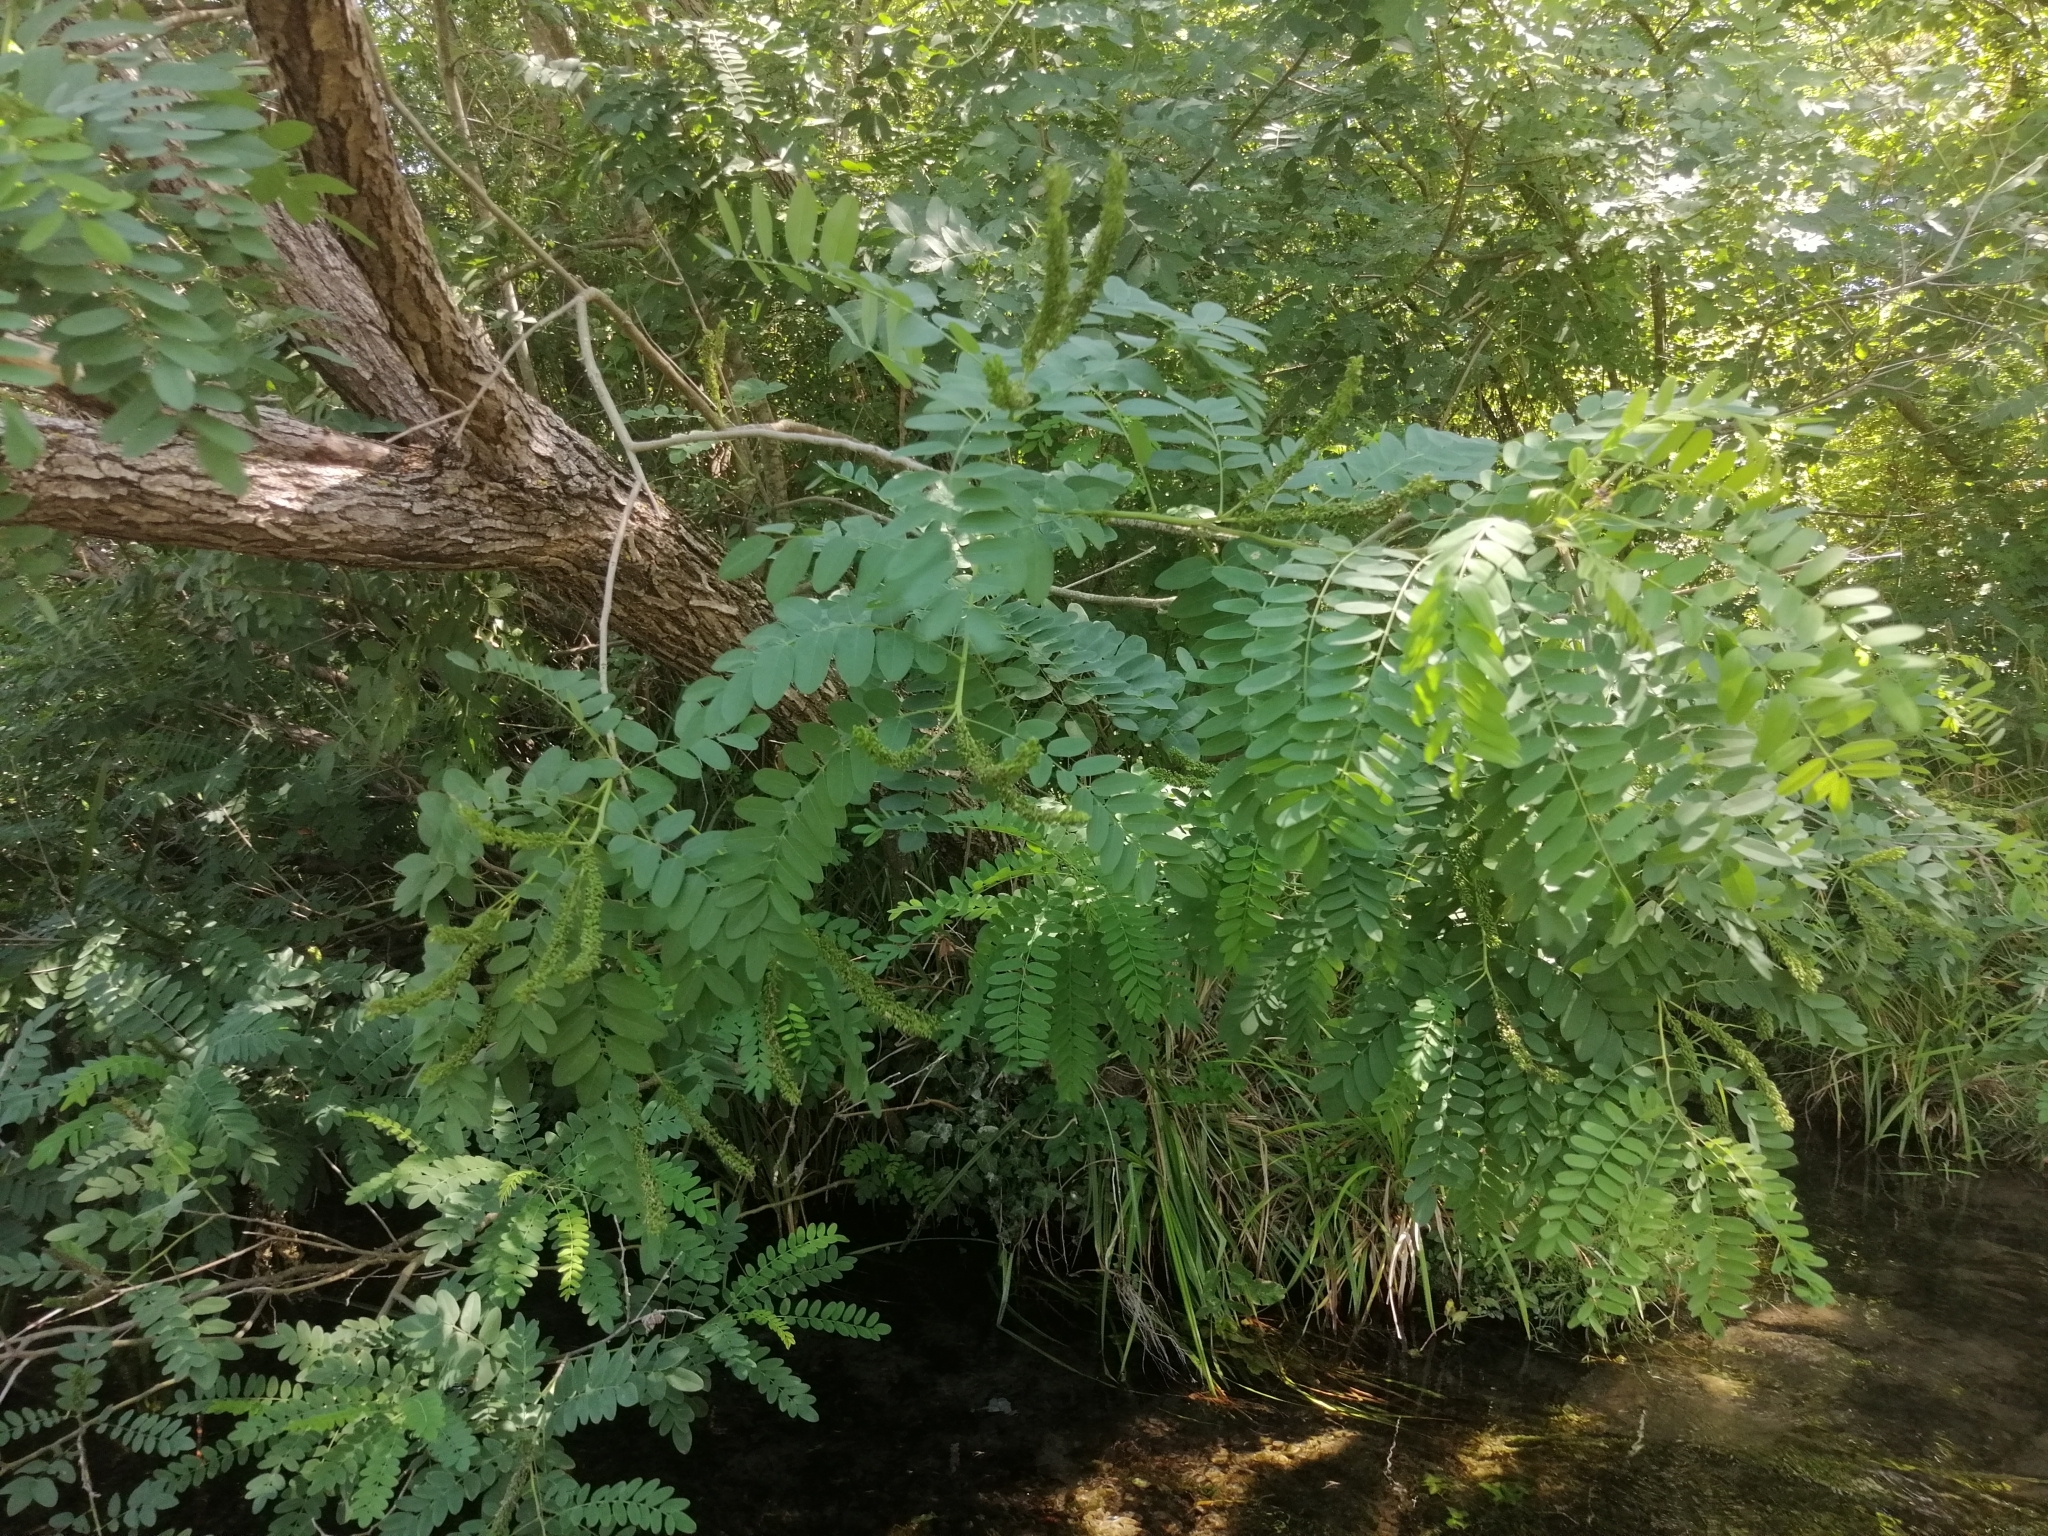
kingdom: Plantae
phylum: Tracheophyta
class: Magnoliopsida
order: Fabales
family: Fabaceae
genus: Amorpha
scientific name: Amorpha fruticosa
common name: False indigo
